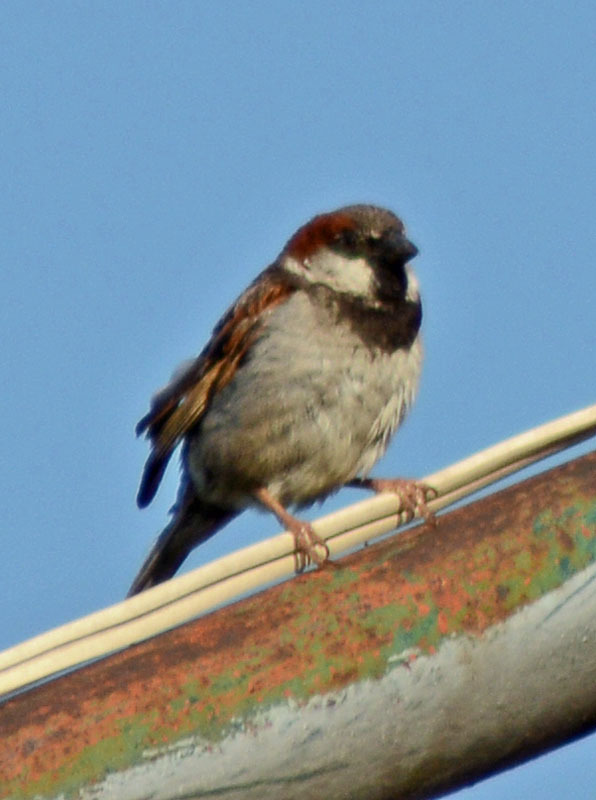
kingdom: Animalia
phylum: Chordata
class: Aves
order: Passeriformes
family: Passeridae
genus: Passer
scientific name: Passer domesticus
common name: House sparrow
